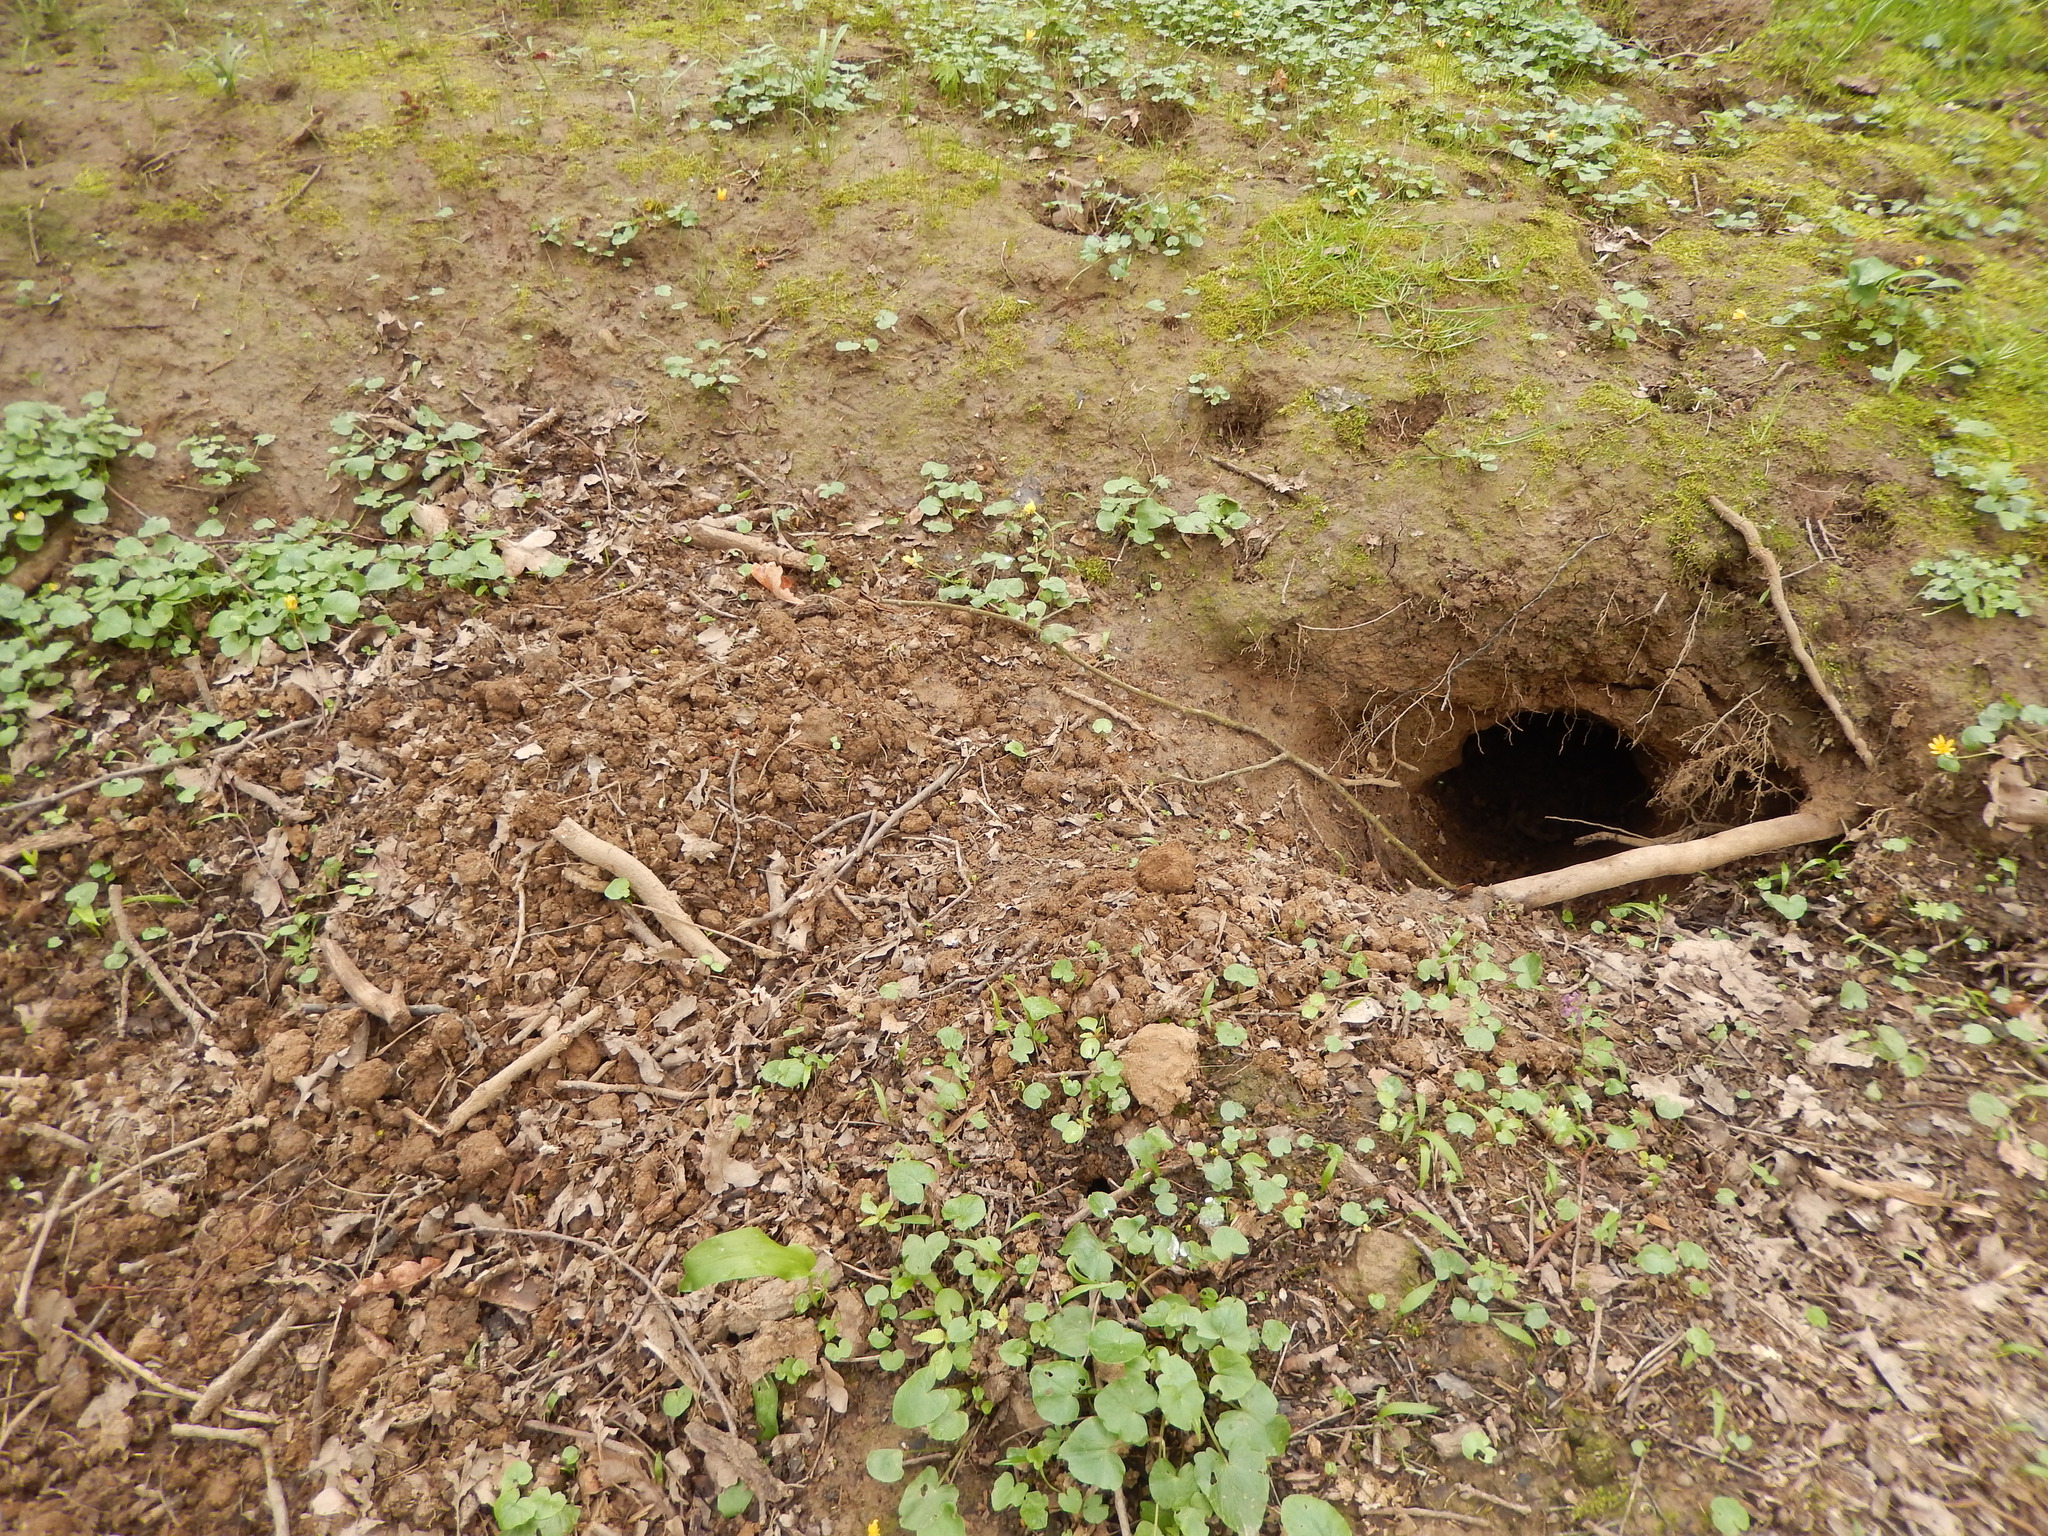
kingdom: Animalia
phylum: Chordata
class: Mammalia
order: Carnivora
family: Mustelidae
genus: Meles
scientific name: Meles meles
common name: Eurasian badger
